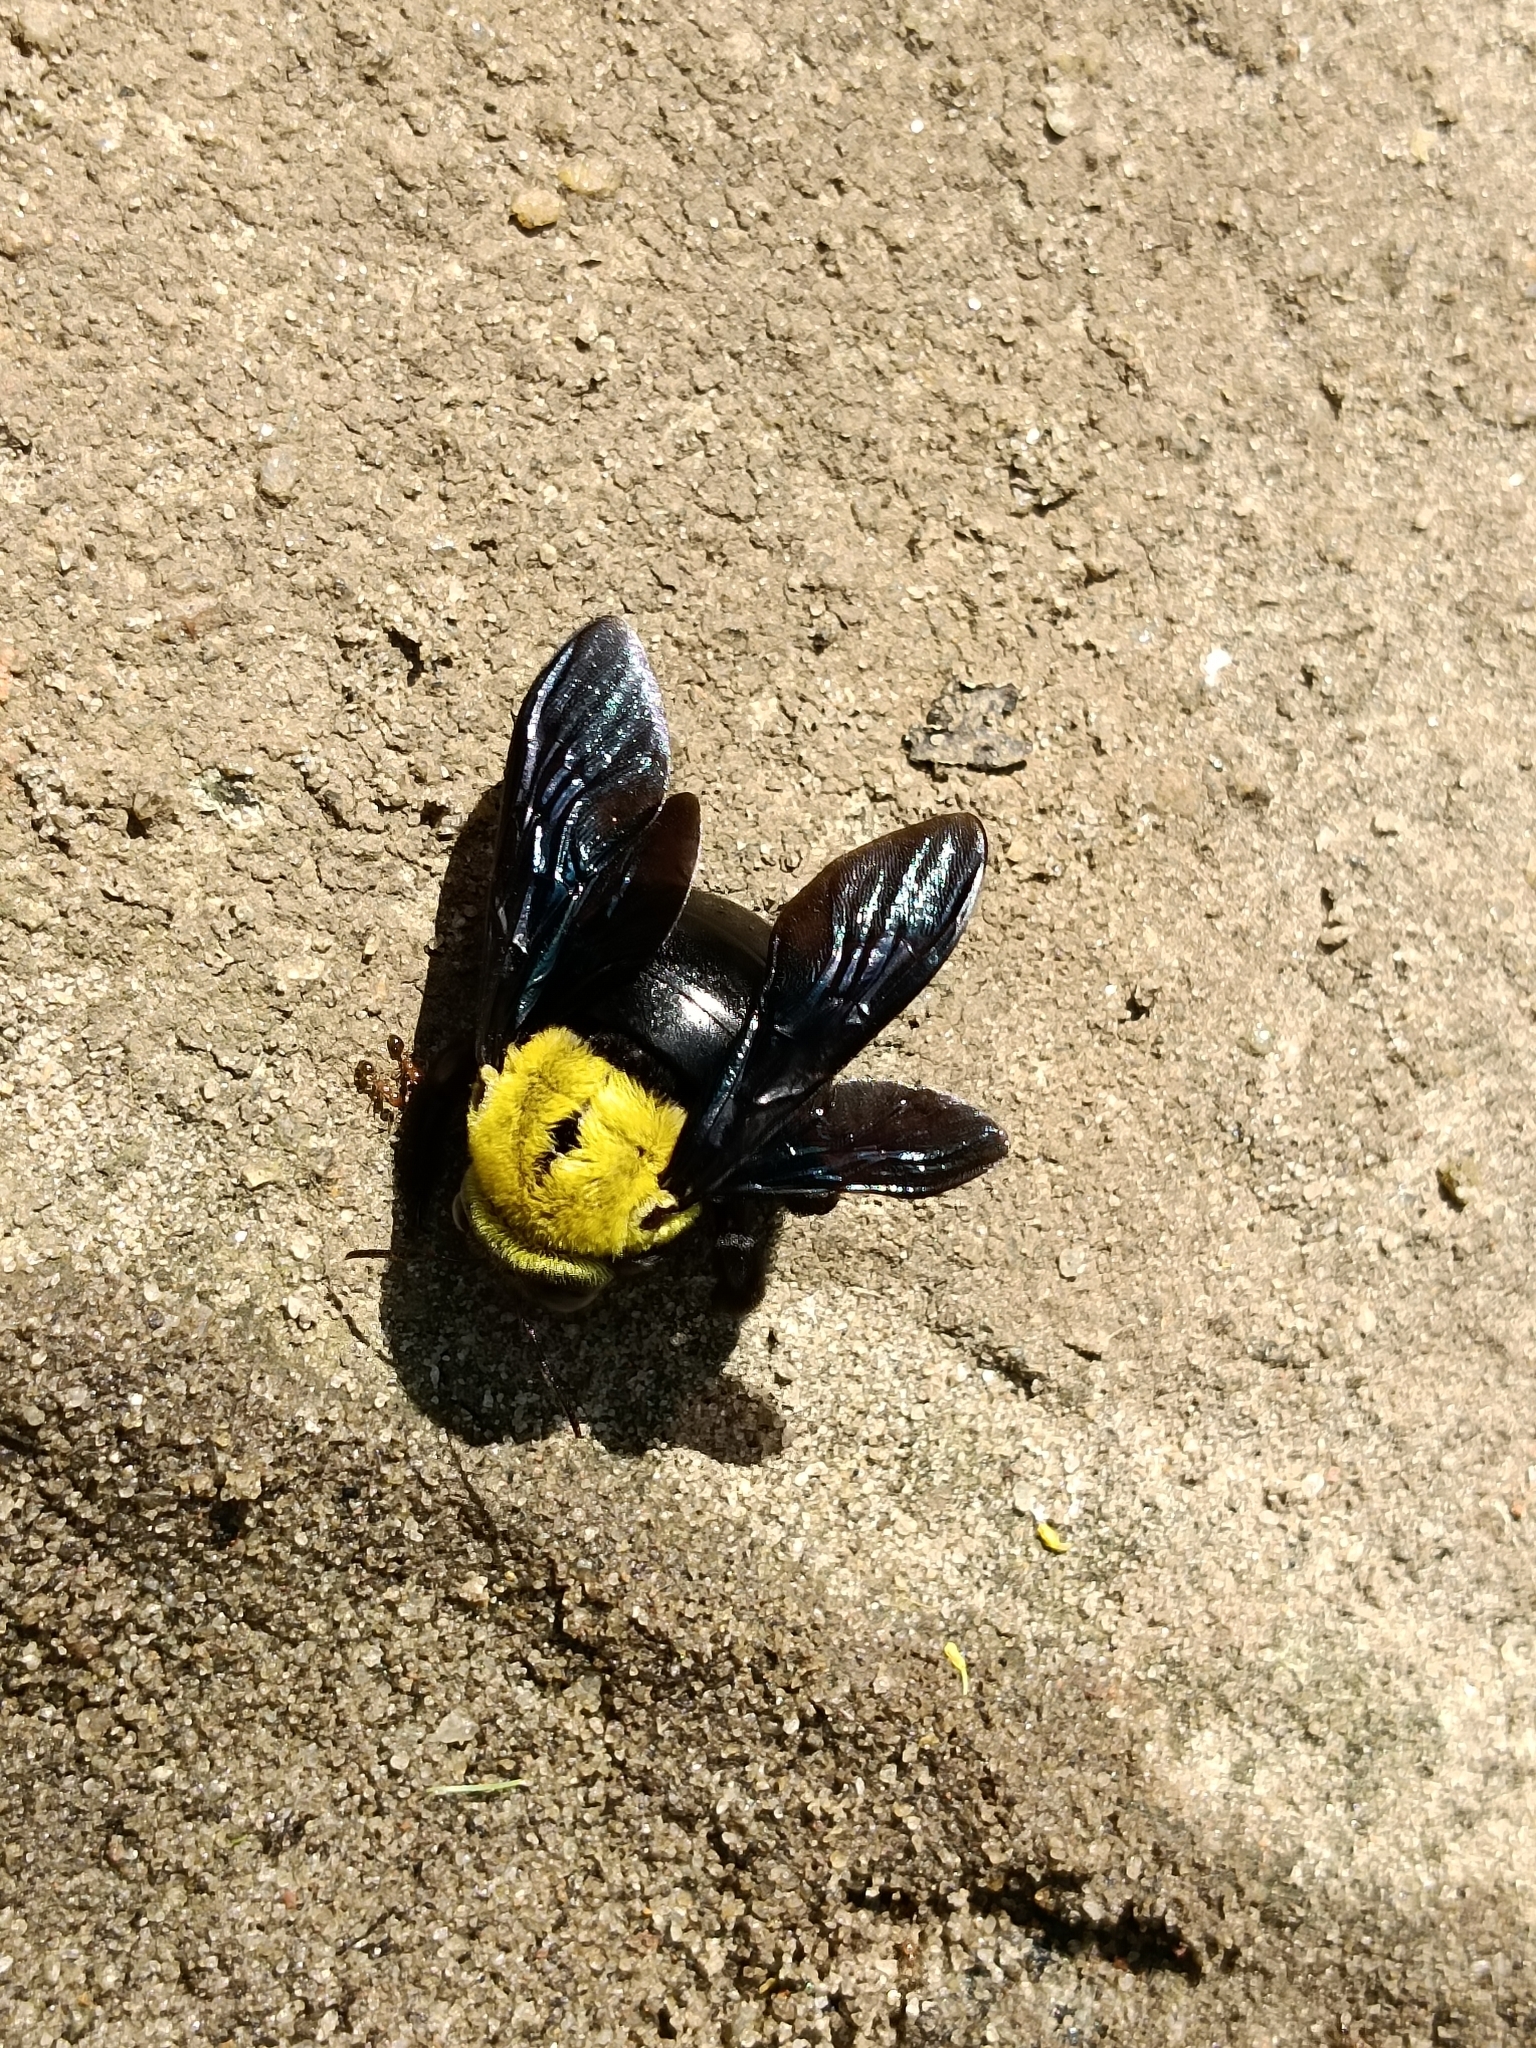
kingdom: Animalia
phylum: Arthropoda
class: Insecta
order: Hymenoptera
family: Apidae
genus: Xylocopa
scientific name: Xylocopa ruficornis
